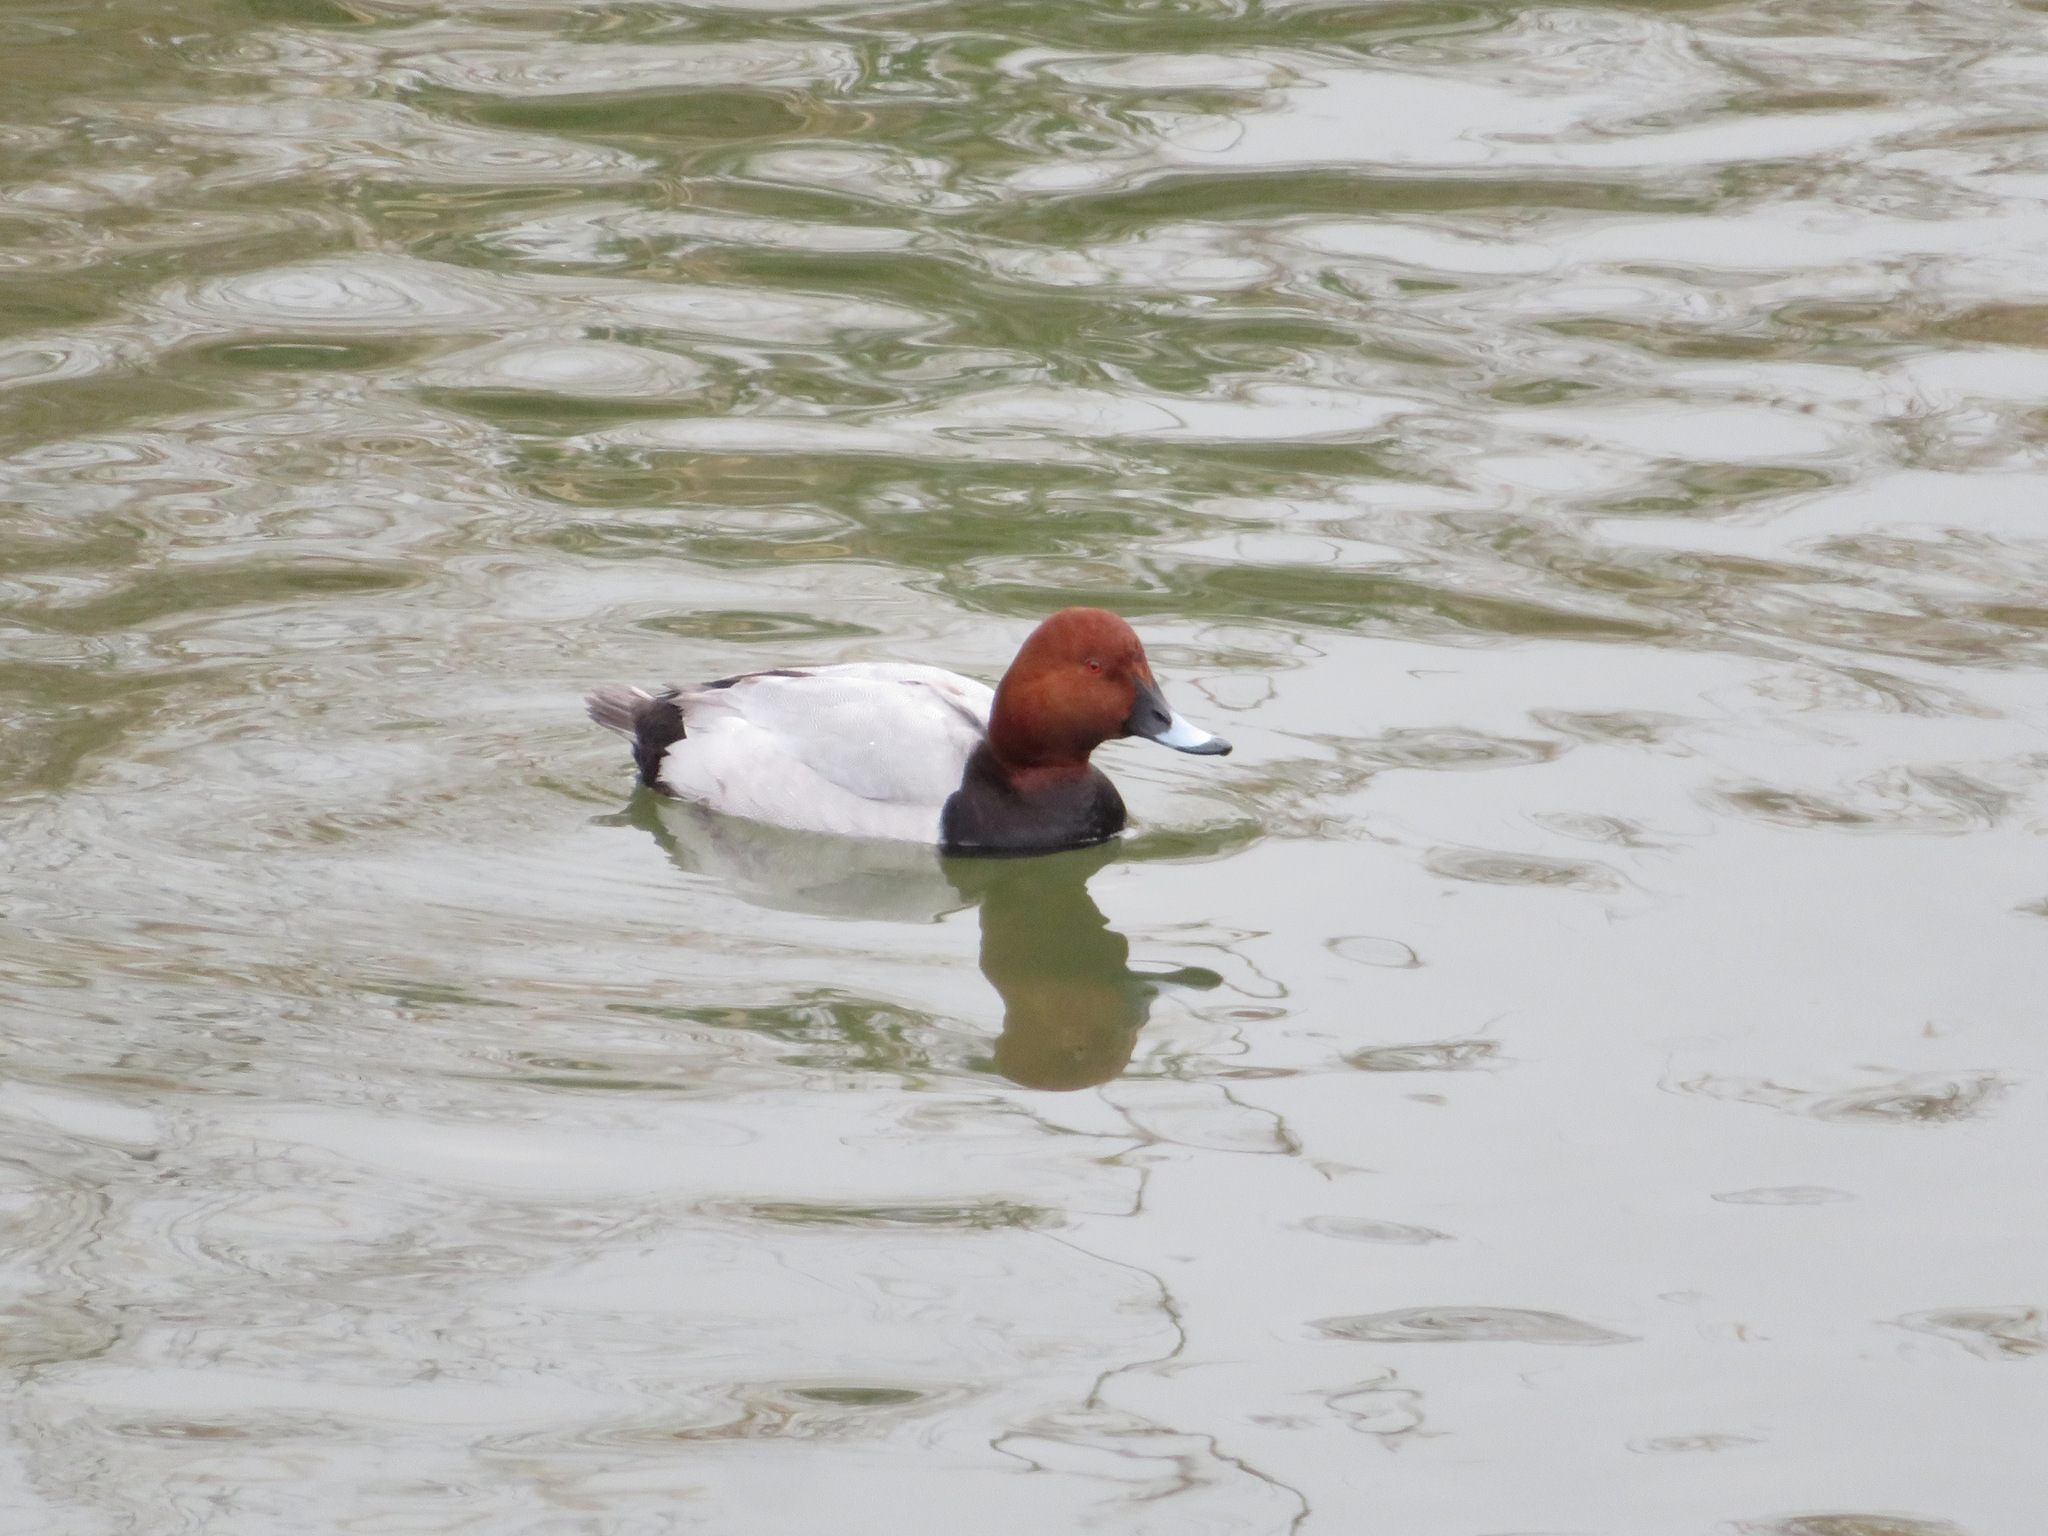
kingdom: Animalia
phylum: Chordata
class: Aves
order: Anseriformes
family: Anatidae
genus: Aythya
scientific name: Aythya ferina
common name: Common pochard
